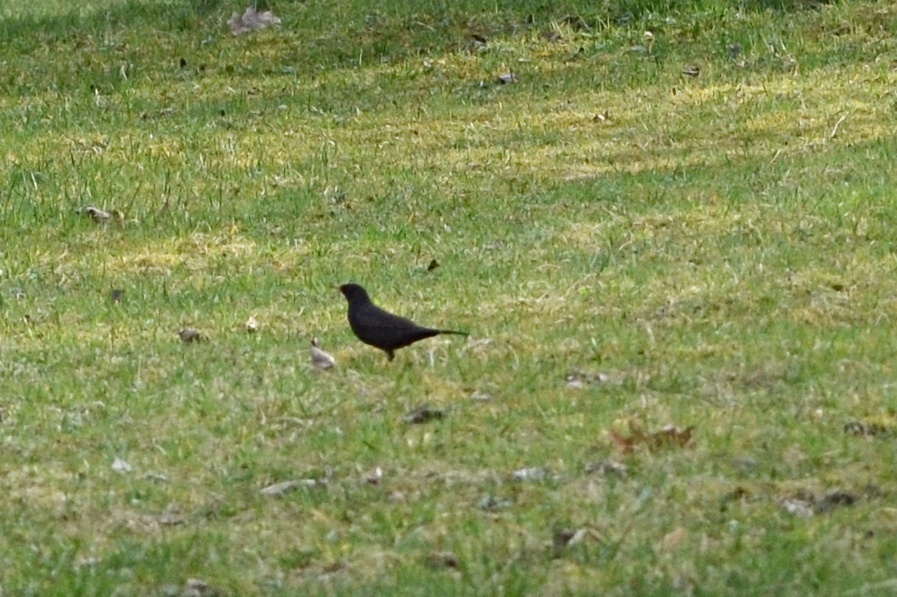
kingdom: Animalia
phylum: Chordata
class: Aves
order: Passeriformes
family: Turdidae
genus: Turdus
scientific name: Turdus merula
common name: Common blackbird
